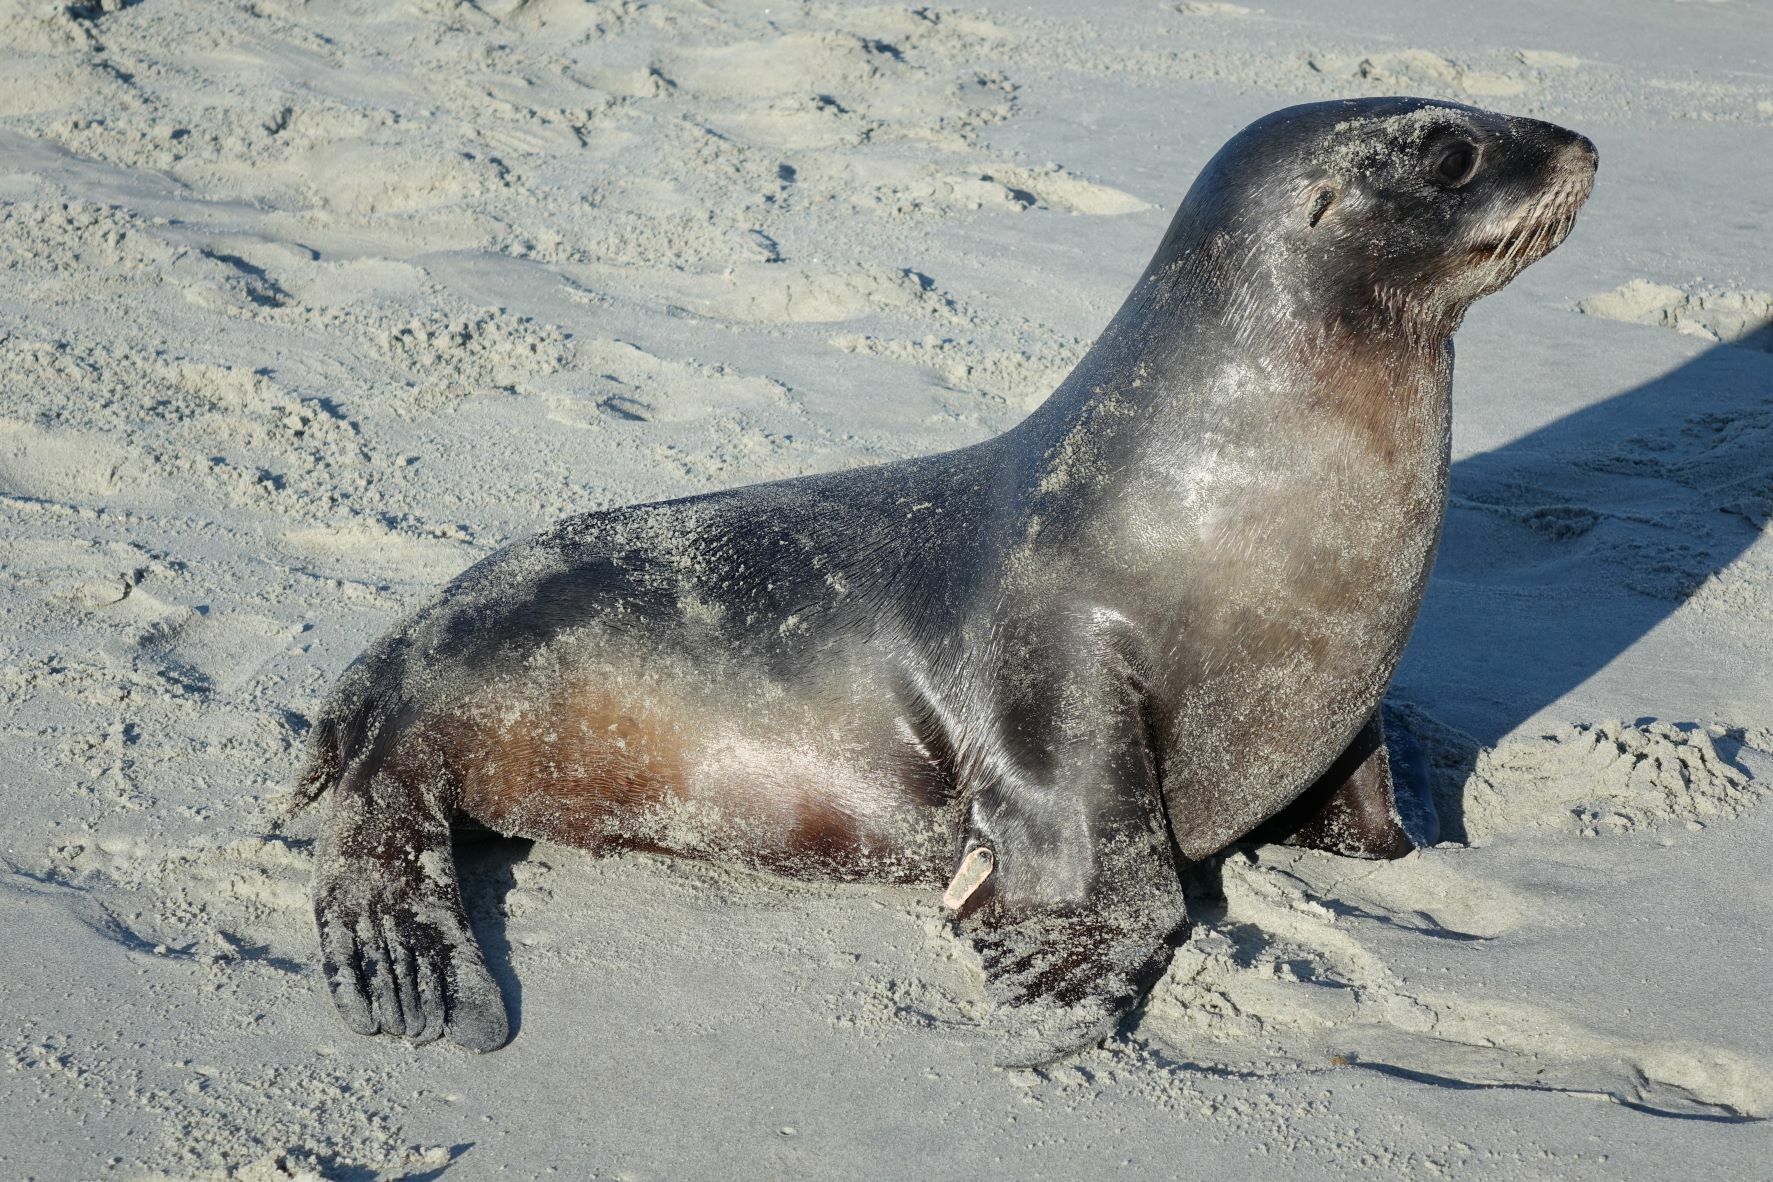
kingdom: Animalia
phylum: Chordata
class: Mammalia
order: Carnivora
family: Otariidae
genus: Phocarctos
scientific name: Phocarctos hookeri
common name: New zealand sea lion
